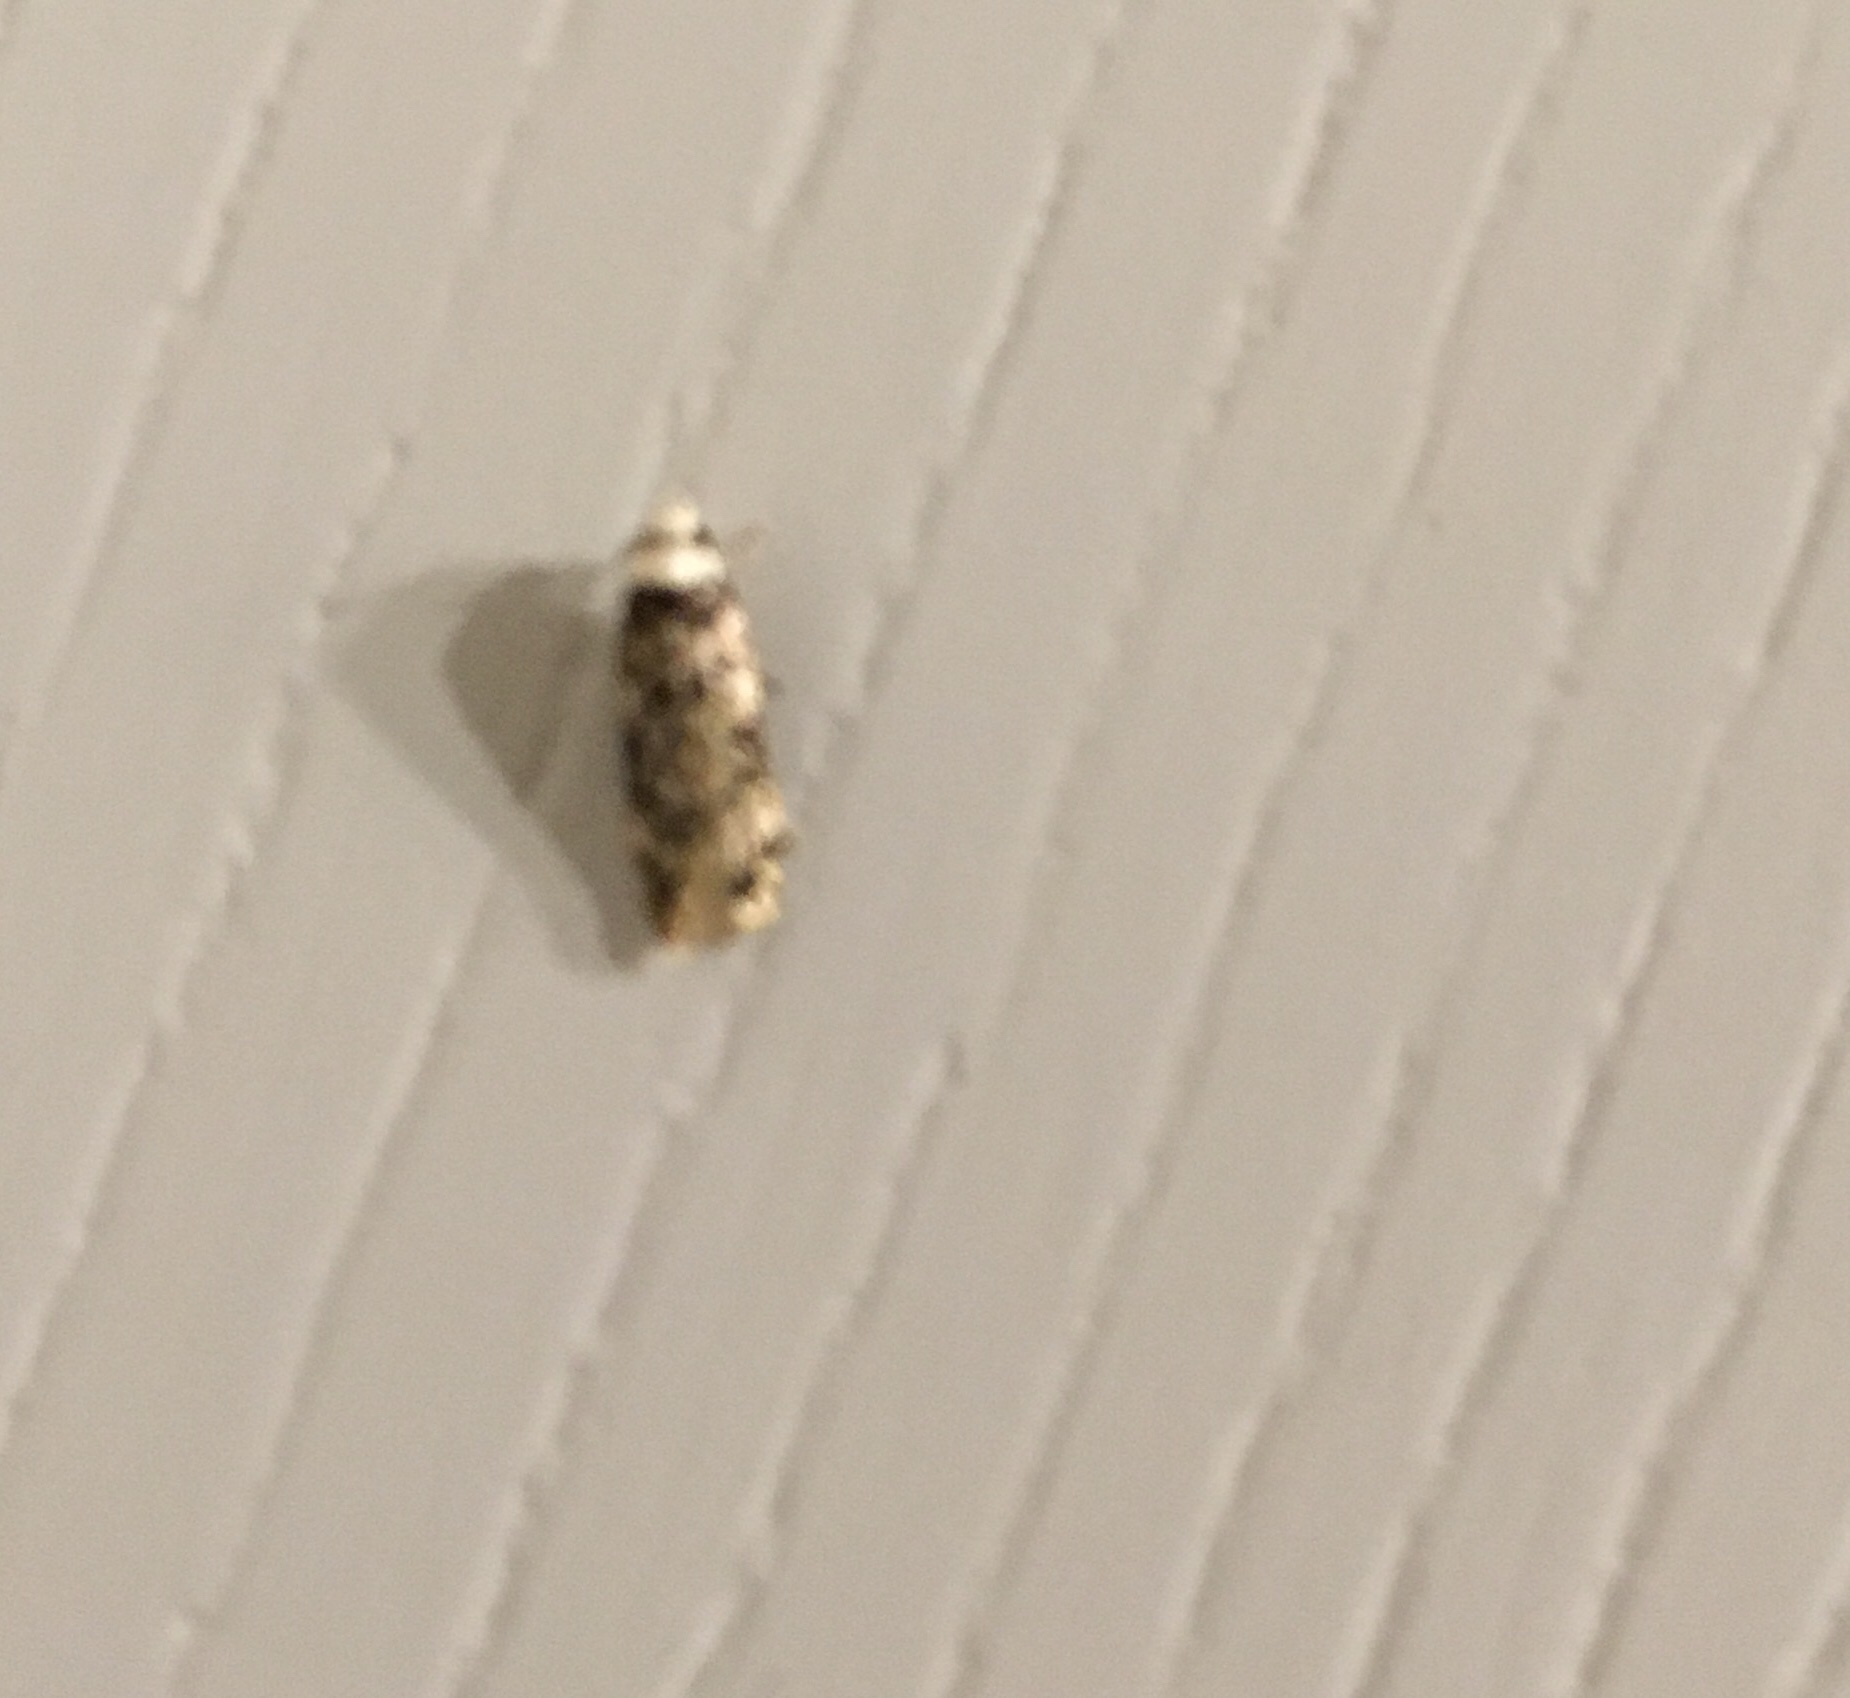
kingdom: Animalia
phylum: Arthropoda
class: Insecta
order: Lepidoptera
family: Oecophoridae
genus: Endrosis
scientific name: Endrosis sarcitrella
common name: White-shouldered house moth
